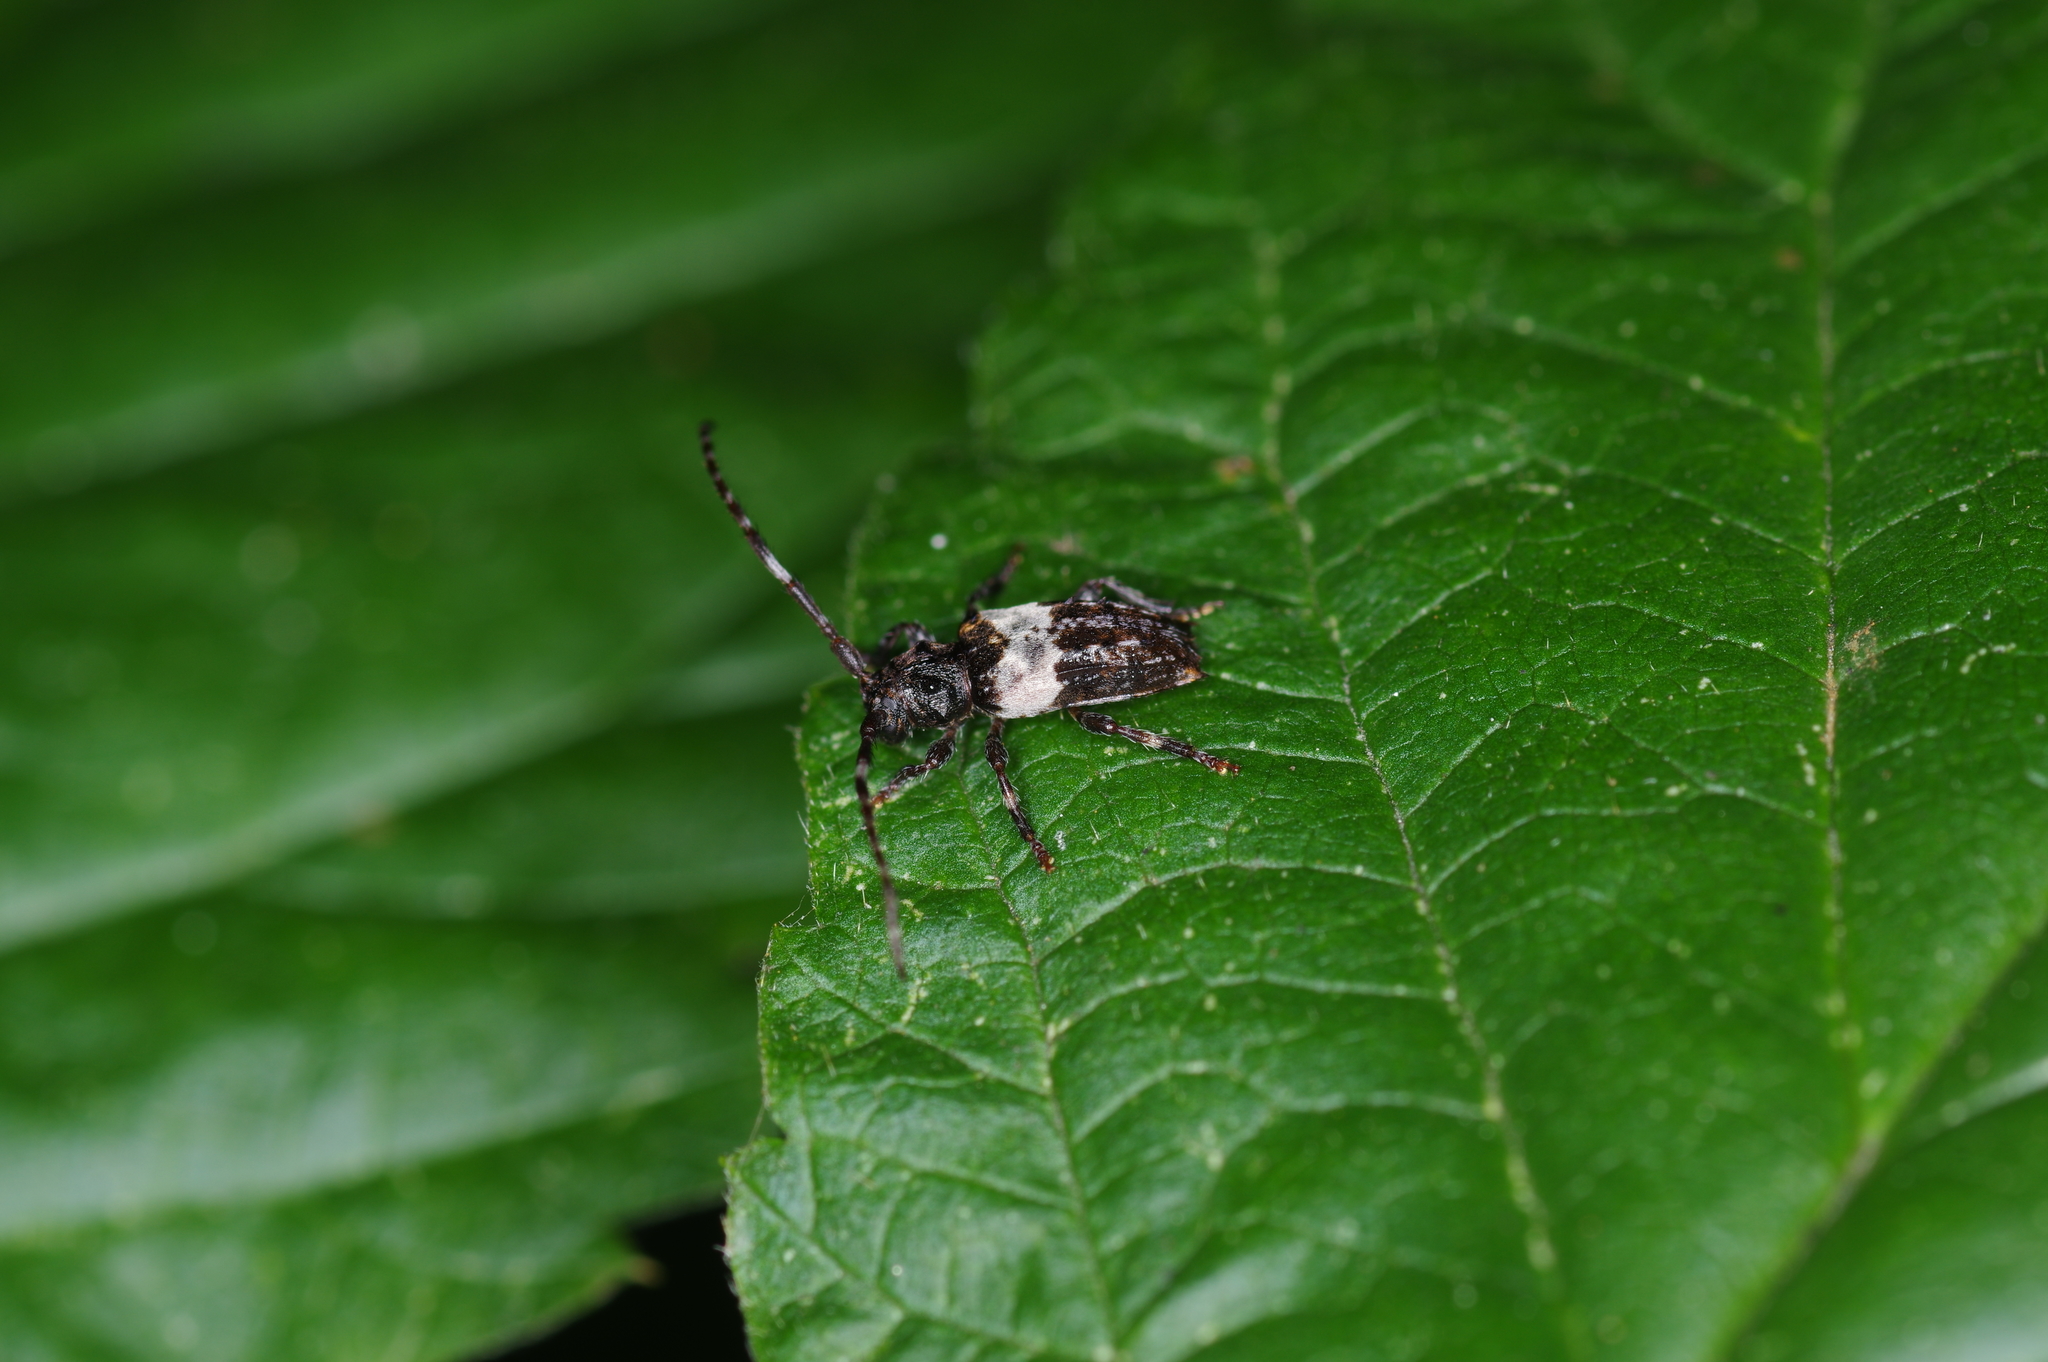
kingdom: Animalia
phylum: Arthropoda
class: Insecta
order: Coleoptera
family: Cerambycidae
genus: Pogonocherus
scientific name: Pogonocherus hispidulus
